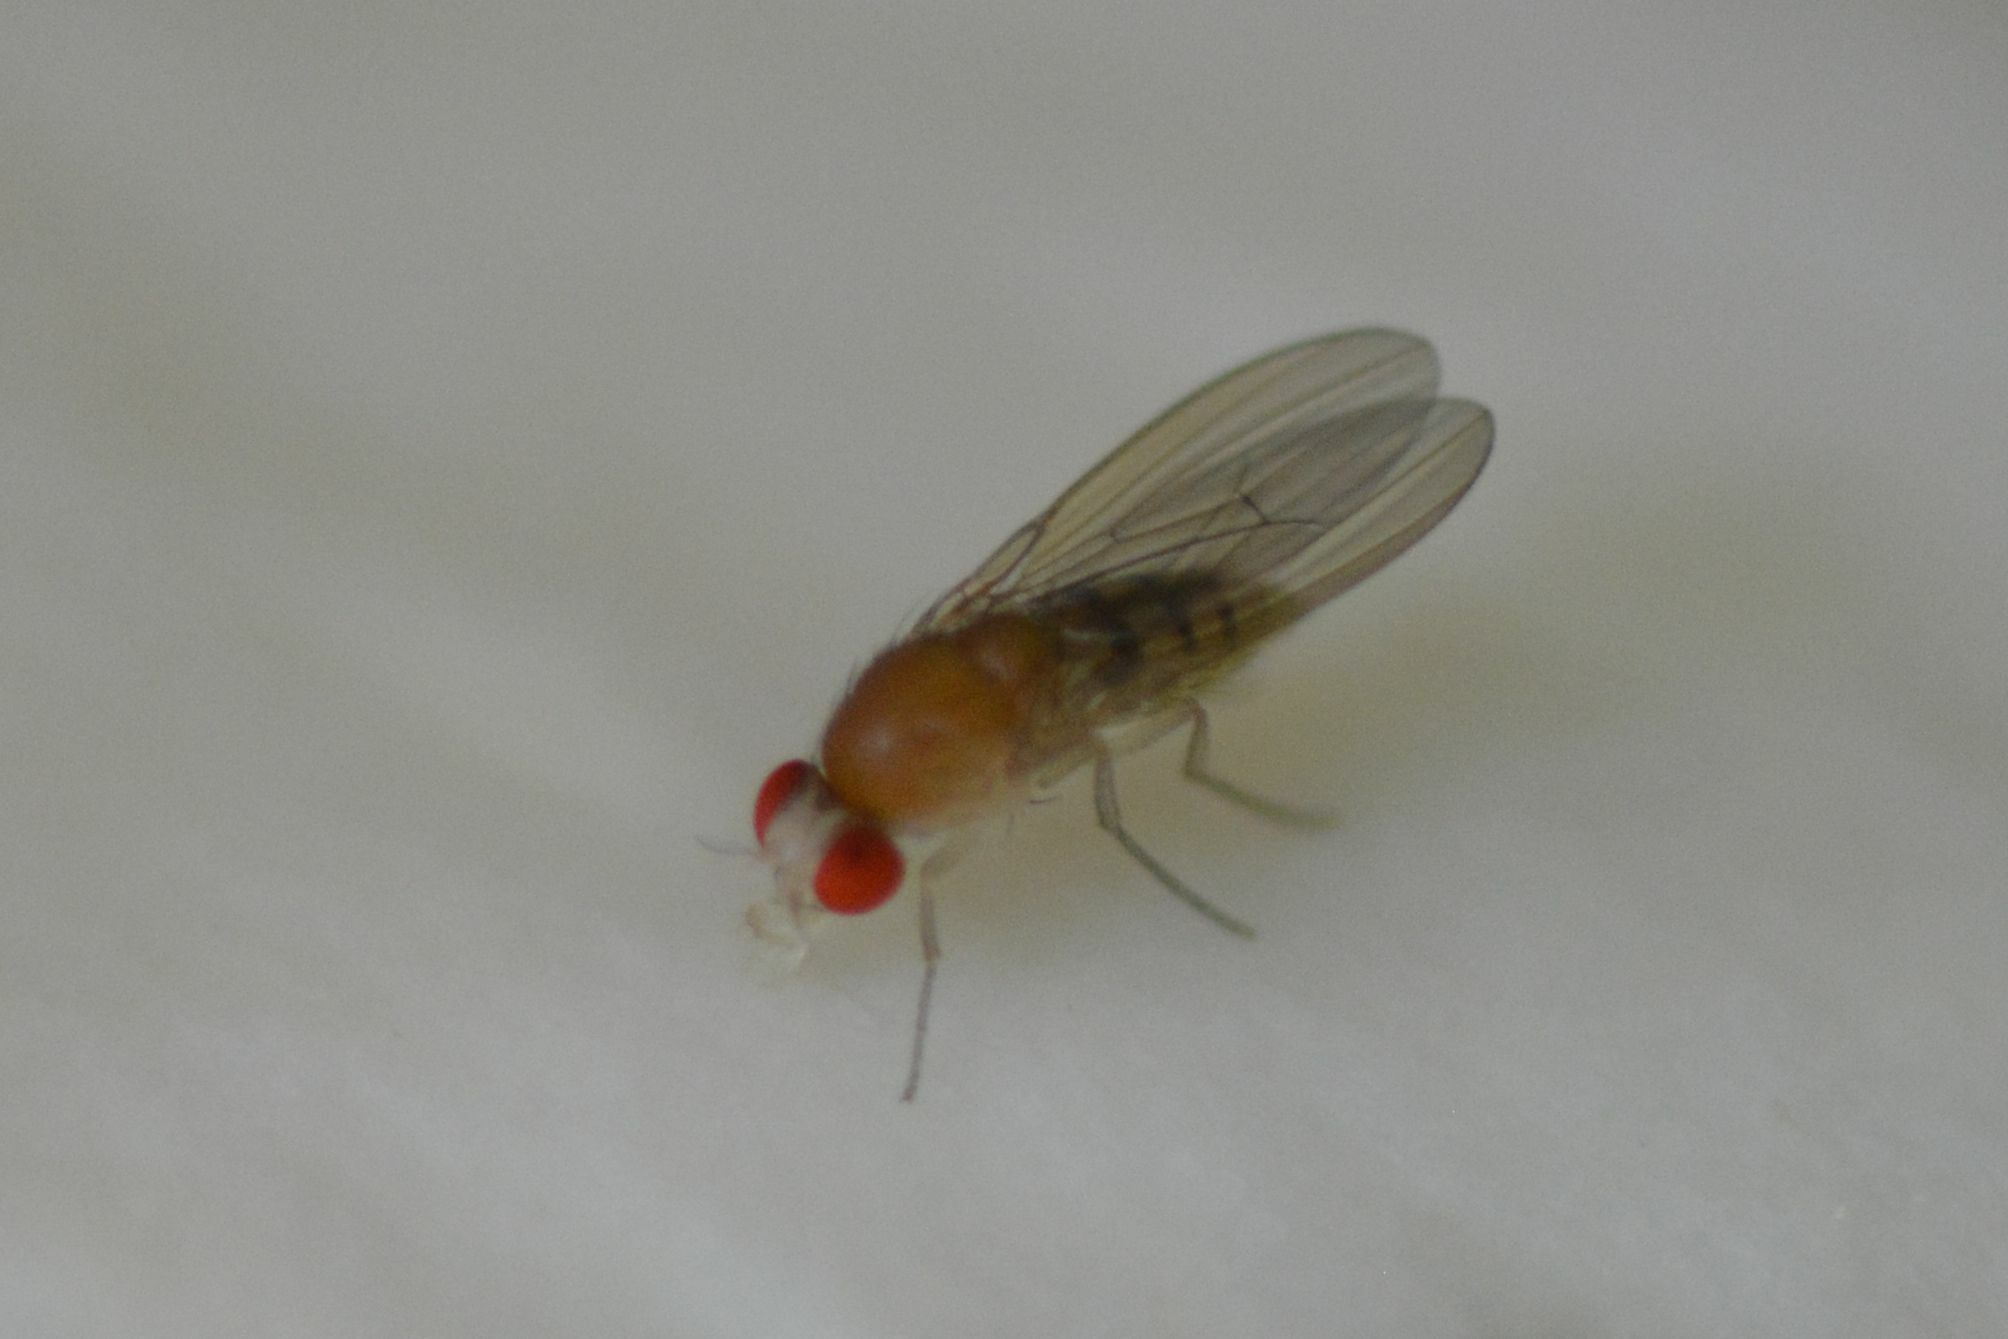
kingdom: Animalia
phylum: Arthropoda
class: Insecta
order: Diptera
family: Drosophilidae
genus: Leucophenga
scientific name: Leucophenga hungarica
